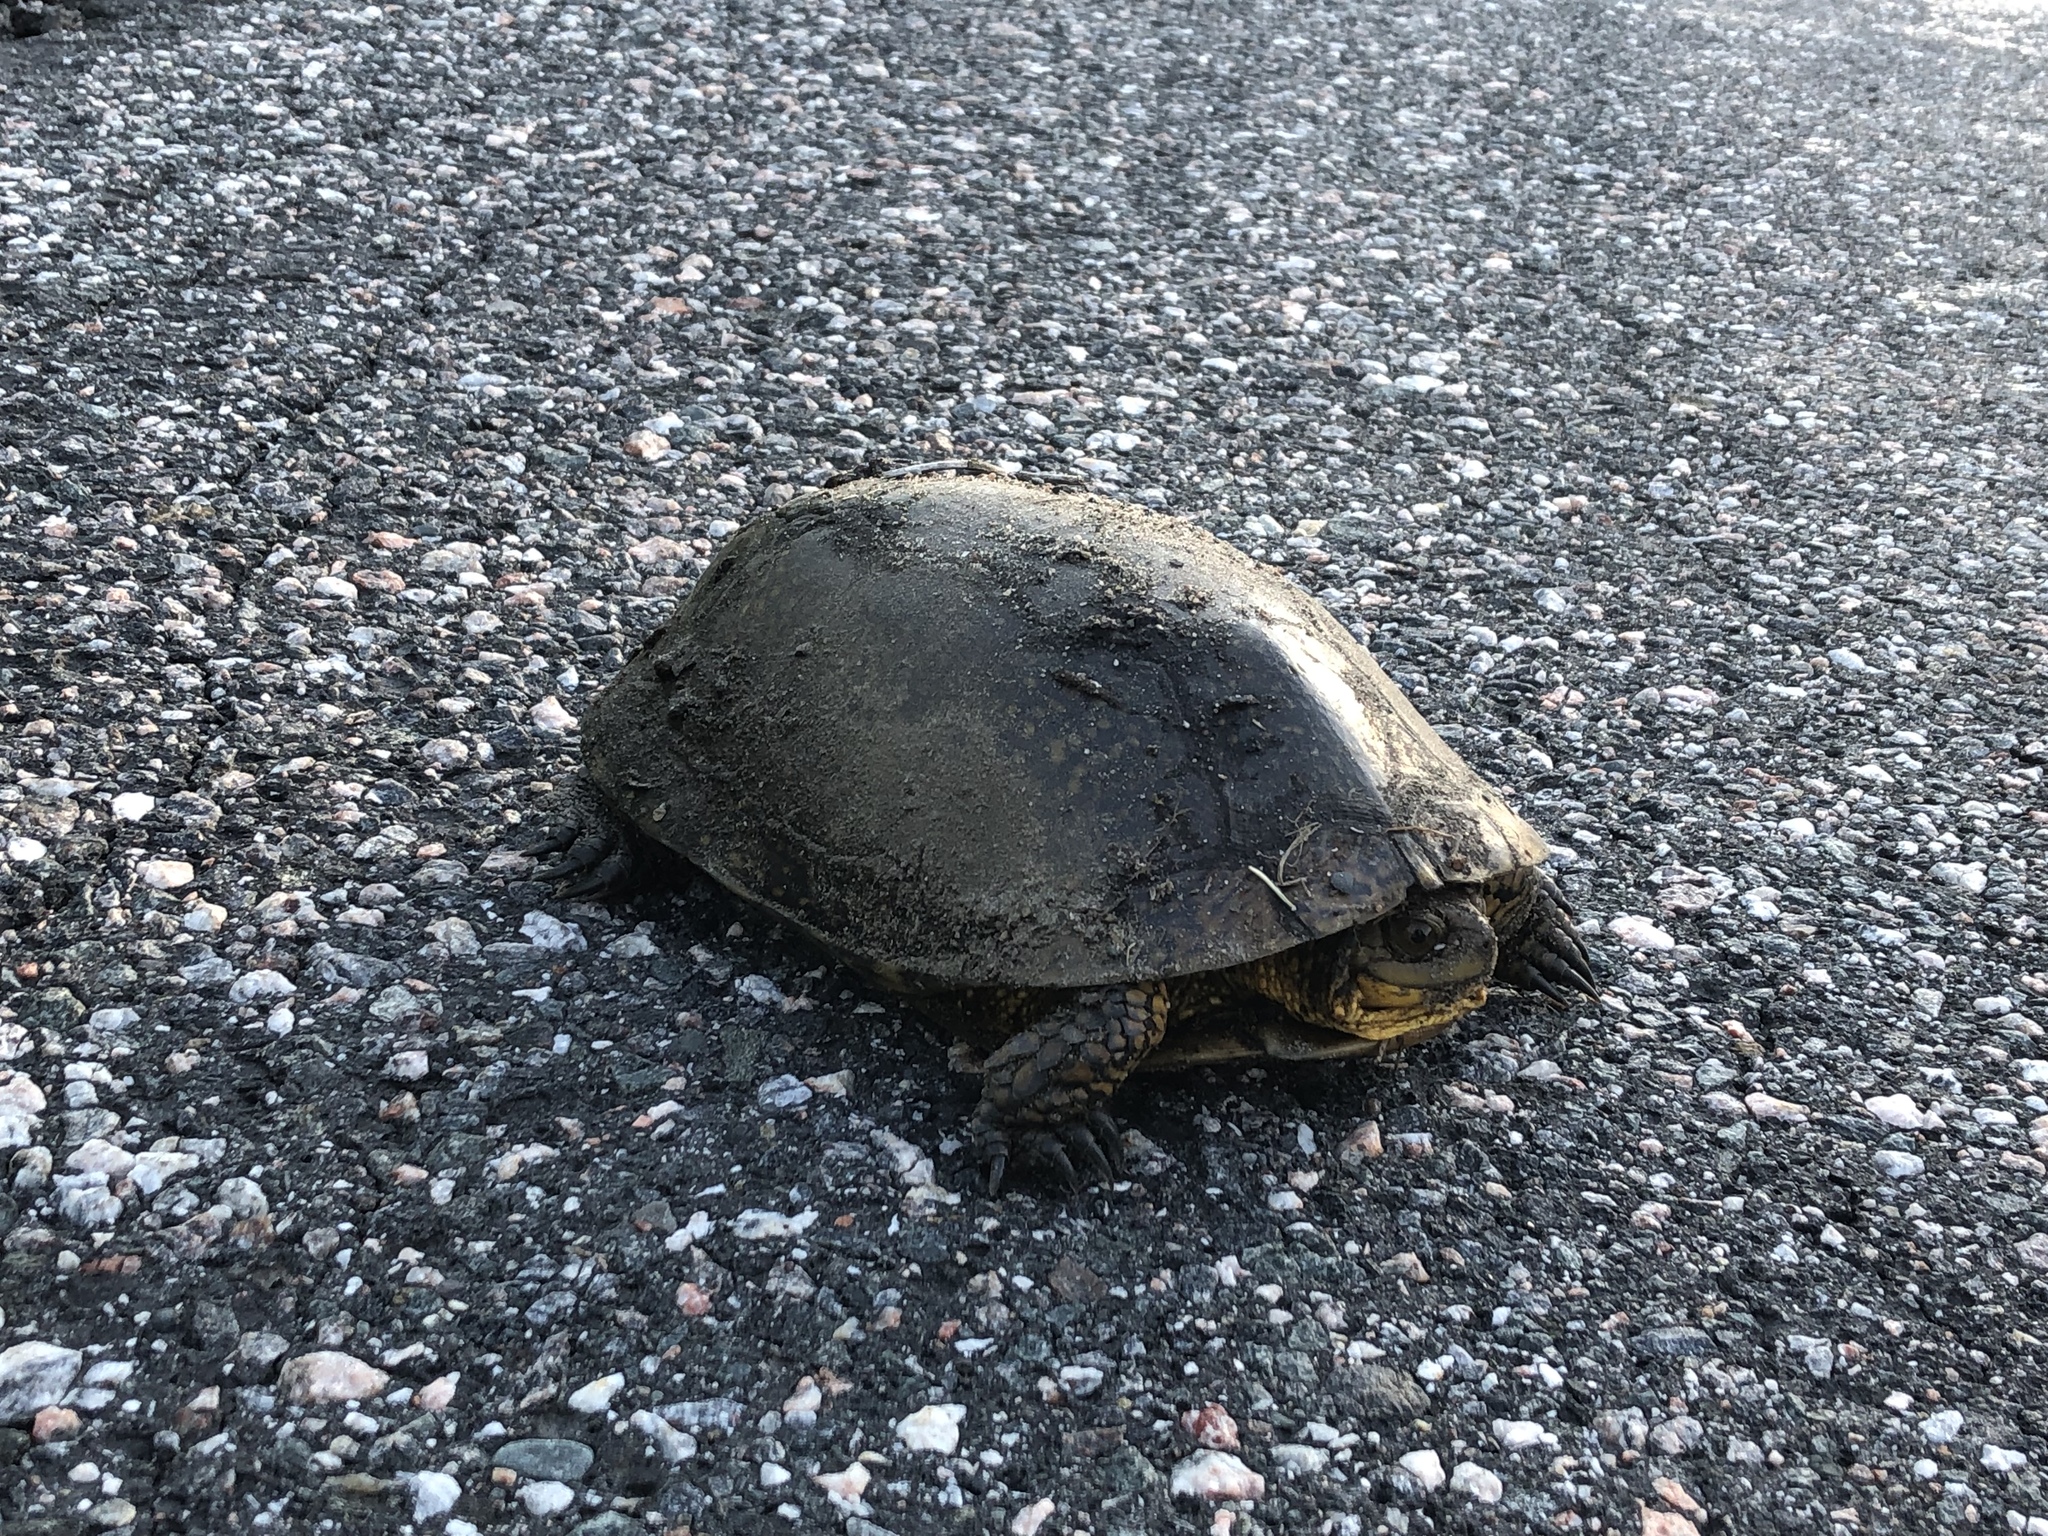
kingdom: Animalia
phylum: Chordata
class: Testudines
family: Emydidae
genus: Emys
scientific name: Emys blandingii
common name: Blanding's turtle
